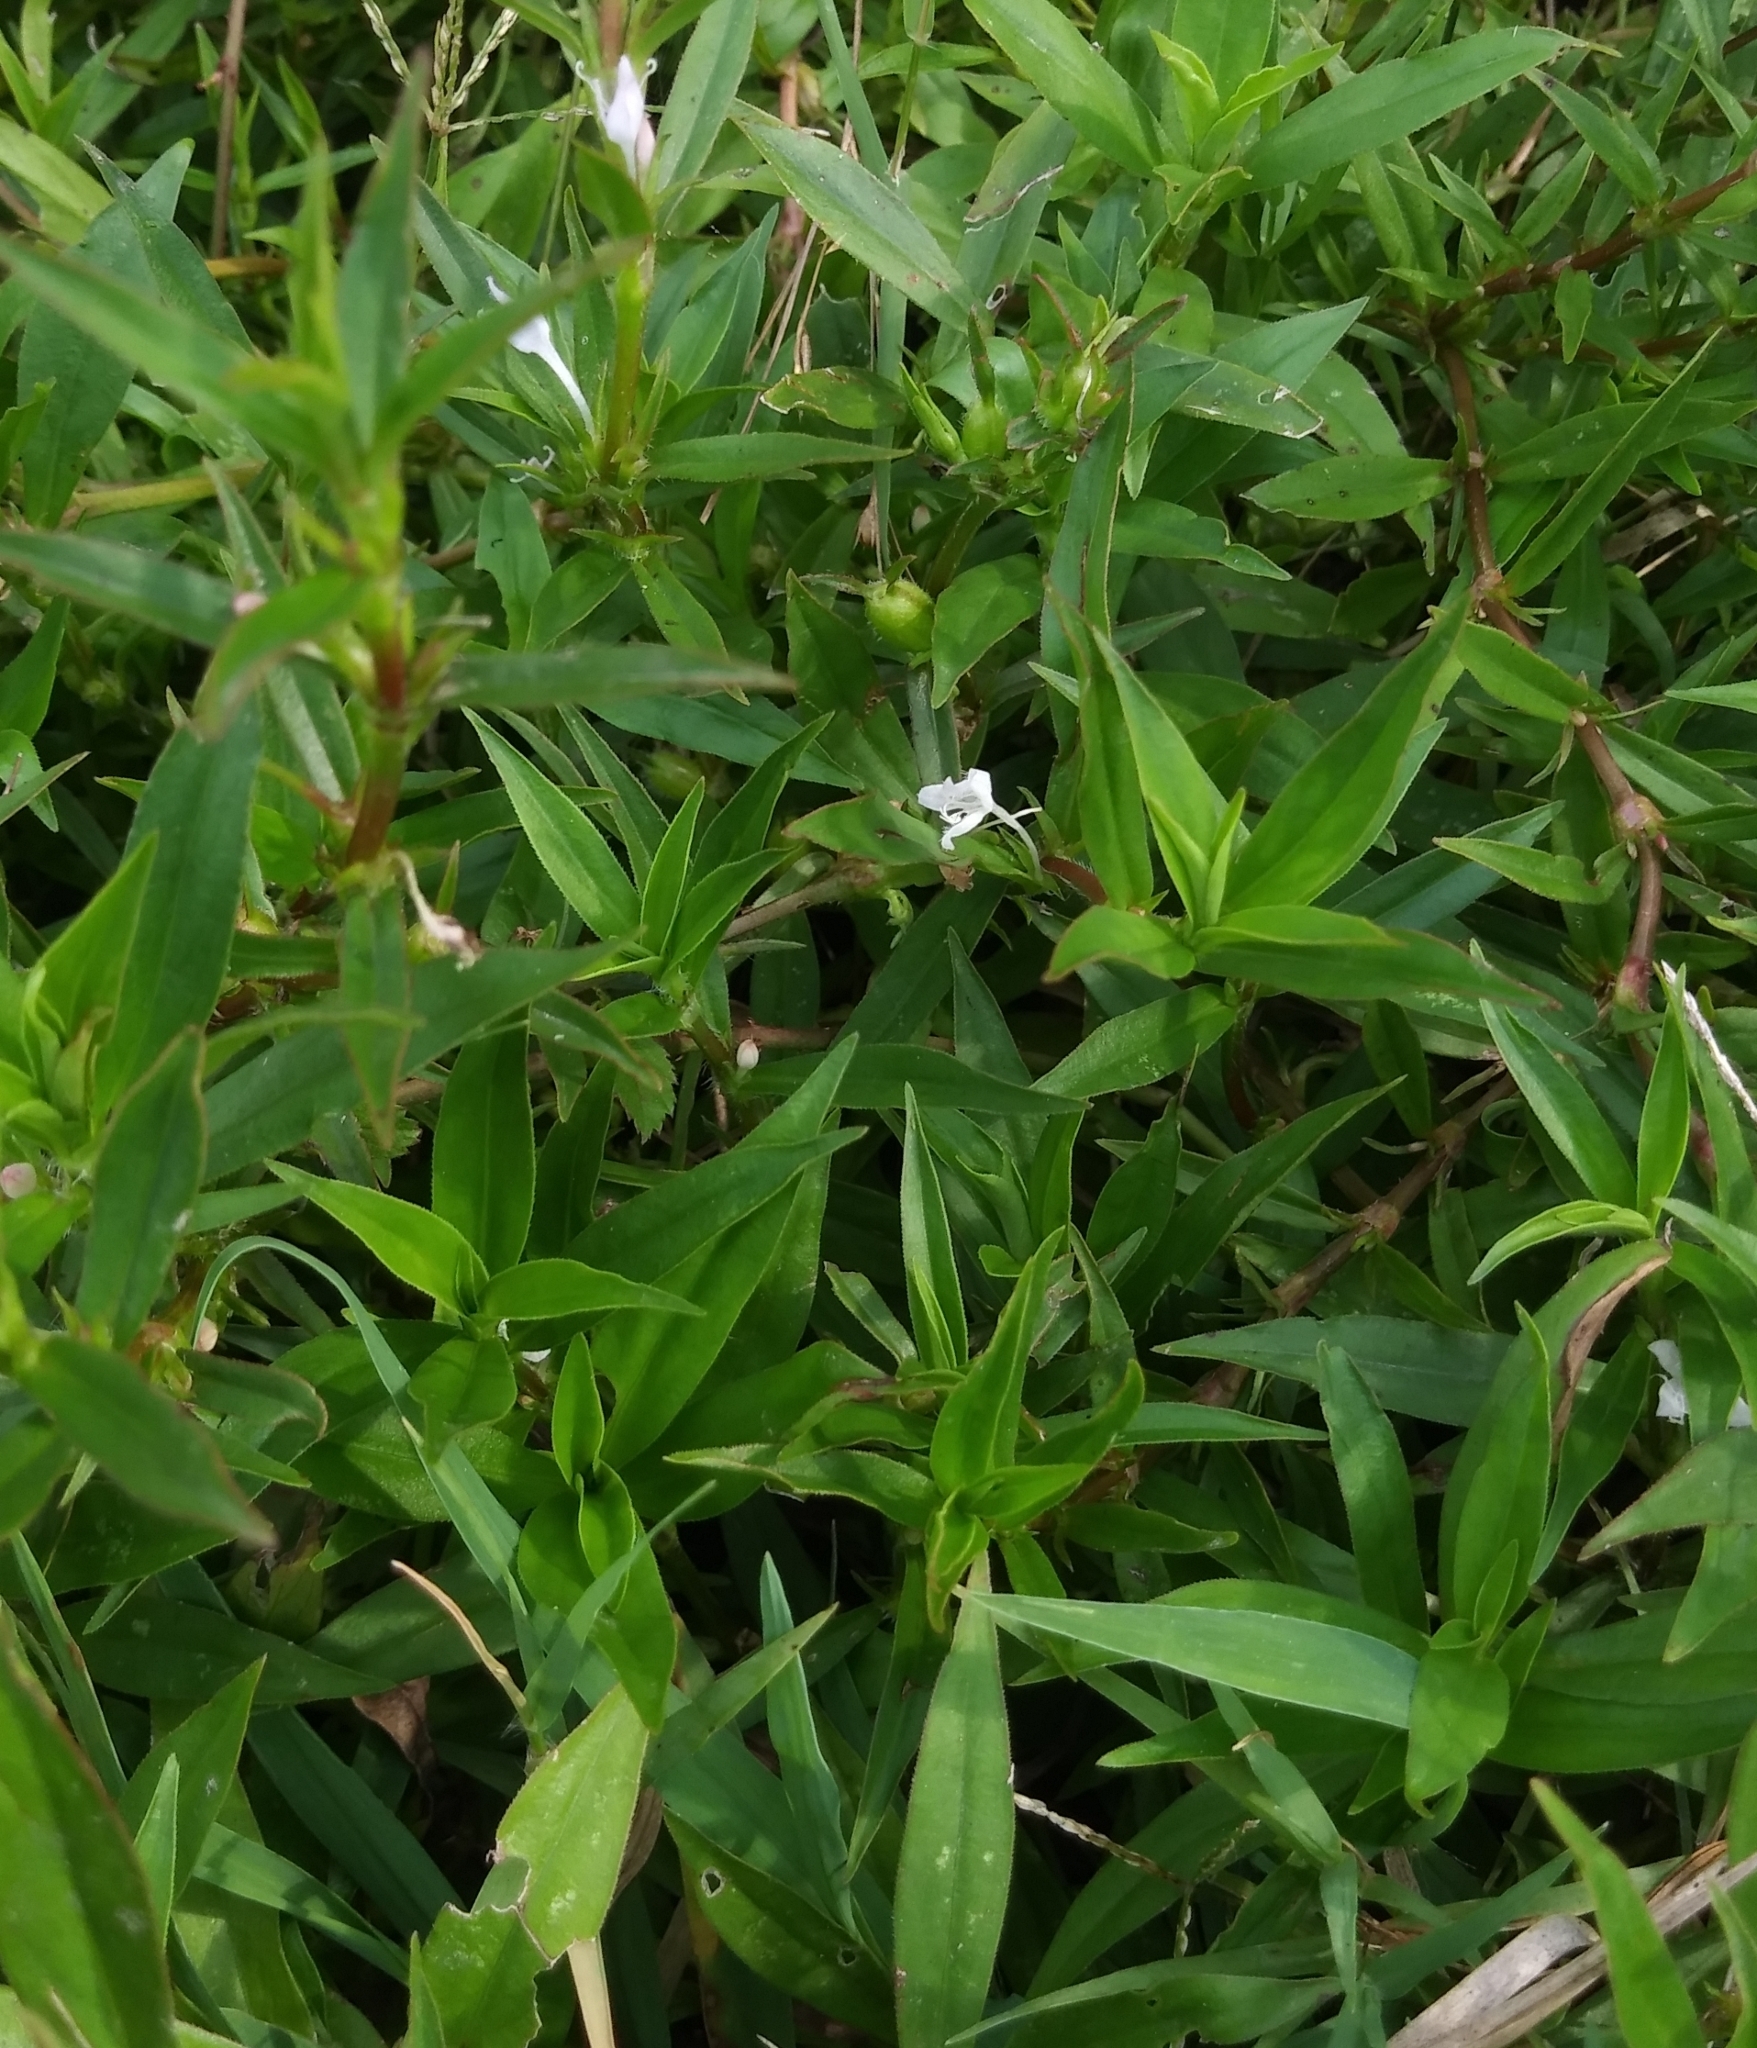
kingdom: Plantae
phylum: Tracheophyta
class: Magnoliopsida
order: Gentianales
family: Rubiaceae
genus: Diodia
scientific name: Diodia virginiana
